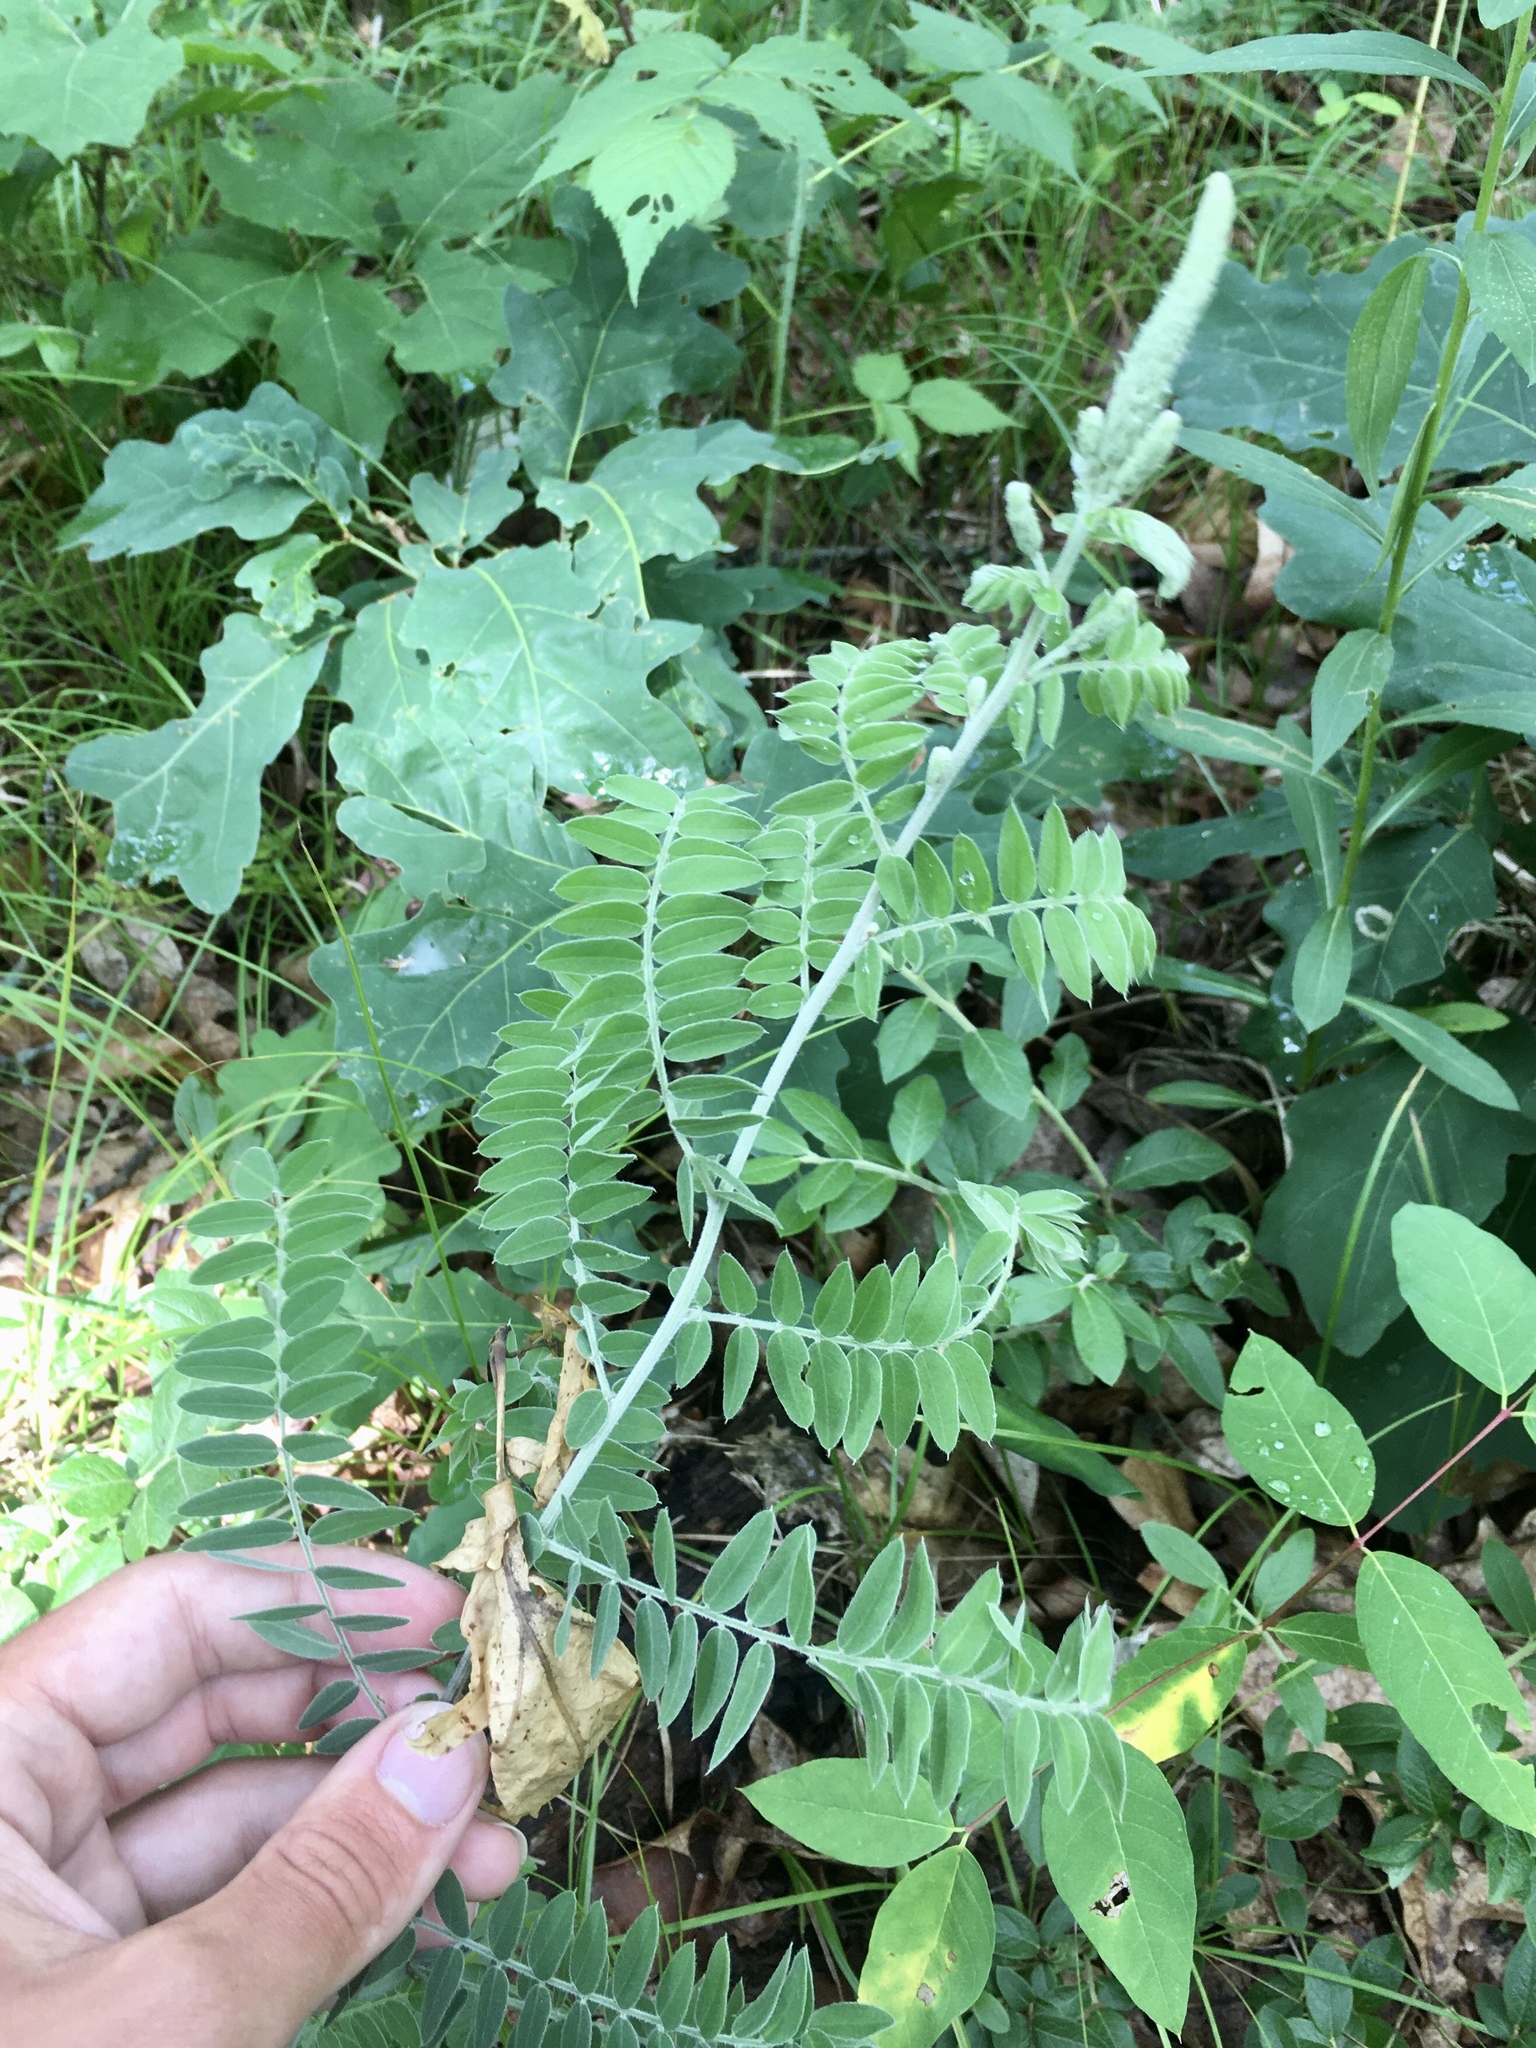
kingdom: Plantae
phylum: Tracheophyta
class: Magnoliopsida
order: Fabales
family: Fabaceae
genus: Amorpha
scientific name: Amorpha canescens
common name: Leadplant
